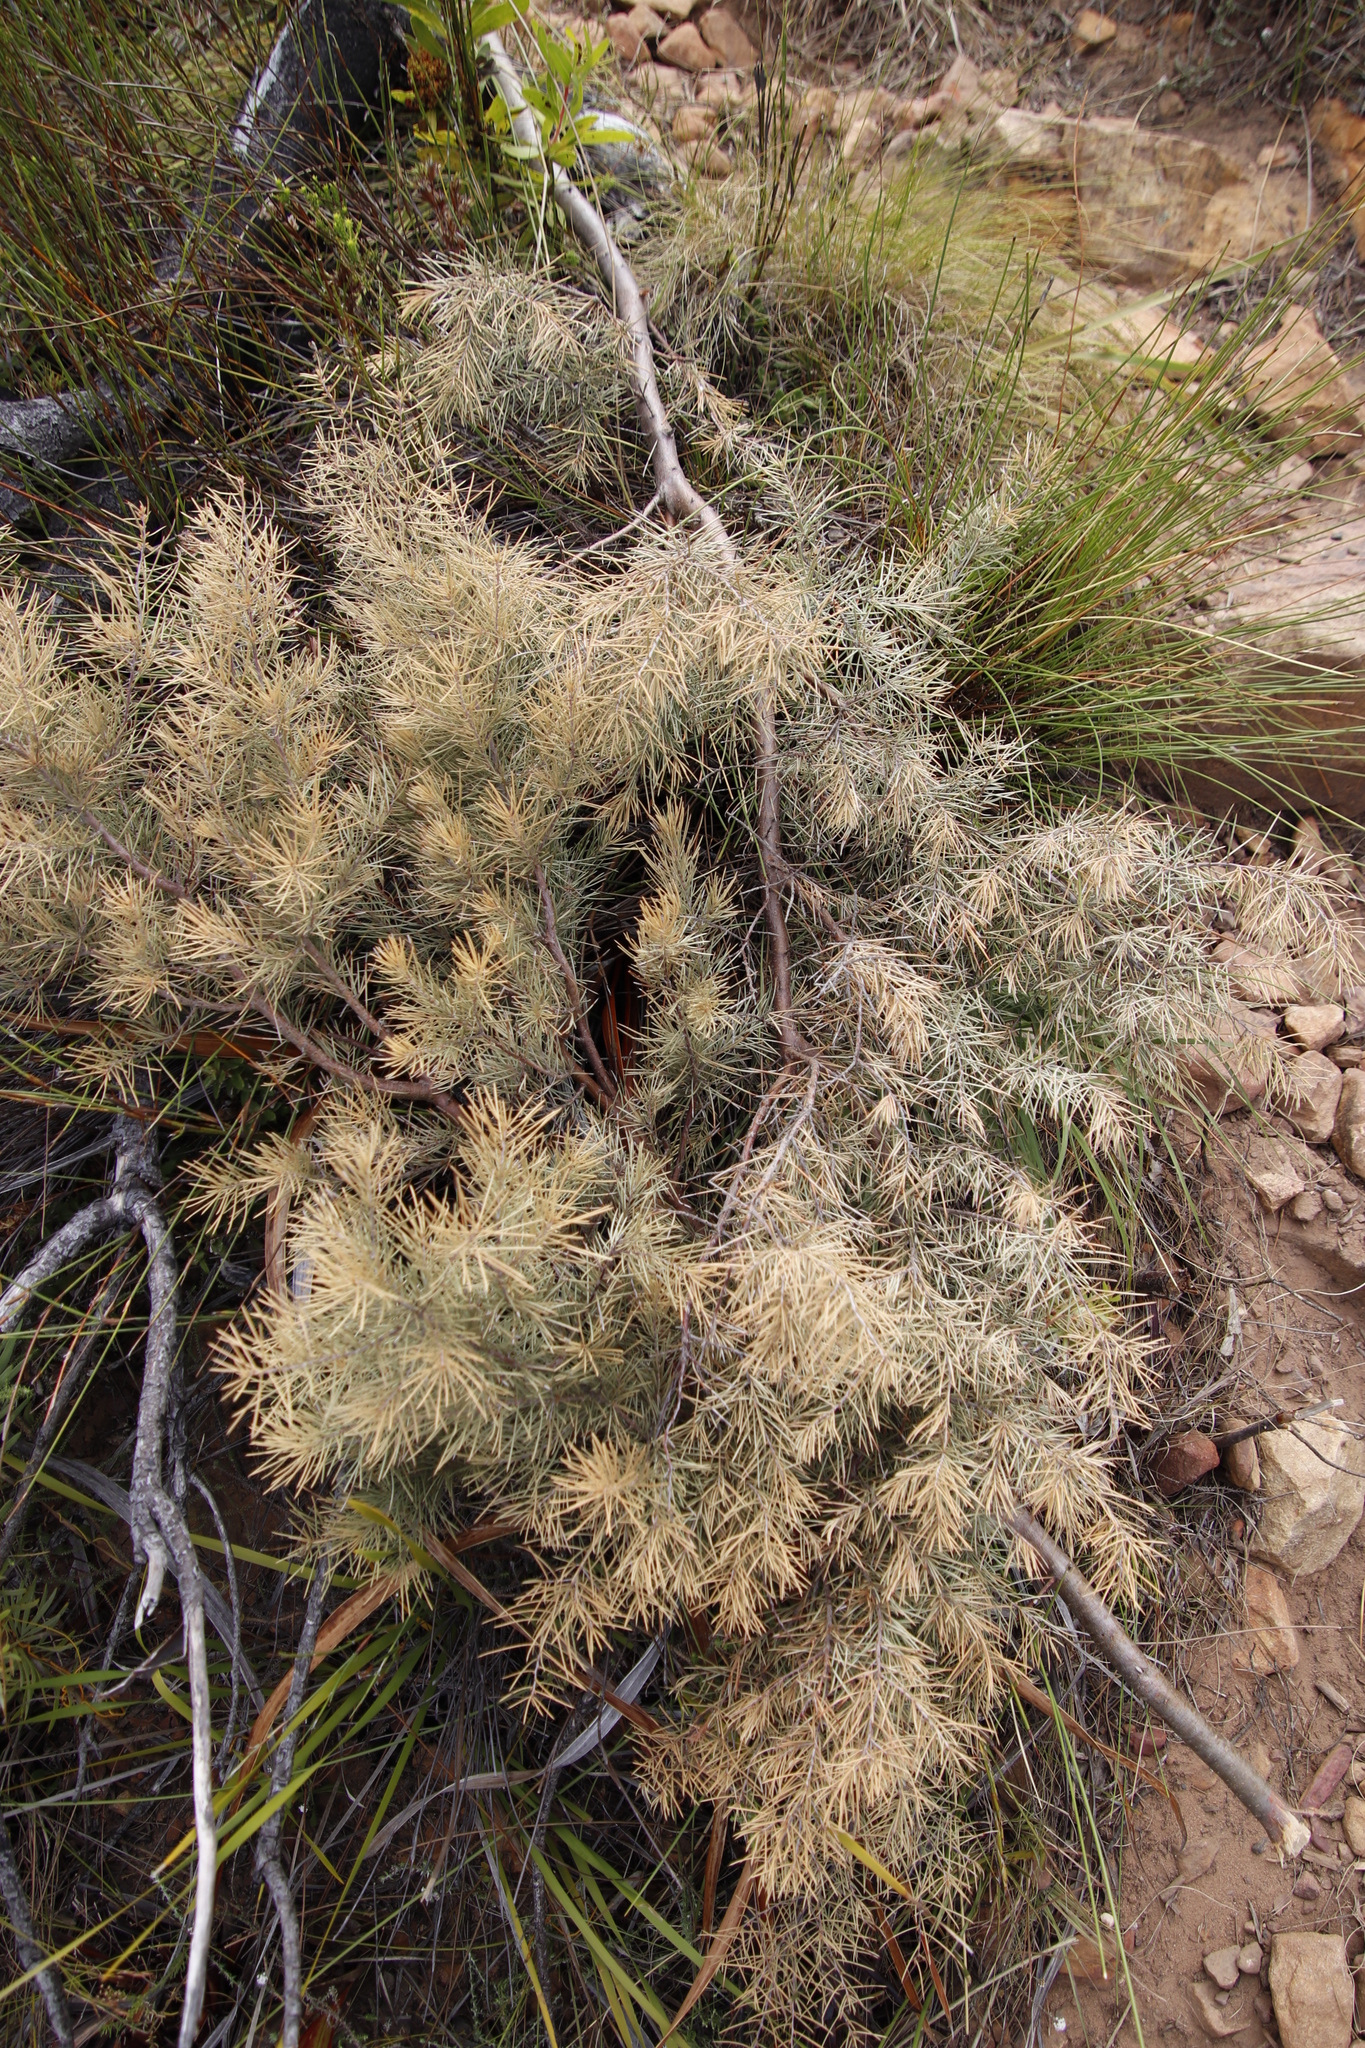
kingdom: Plantae
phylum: Tracheophyta
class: Magnoliopsida
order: Proteales
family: Proteaceae
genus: Hakea
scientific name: Hakea sericea
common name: Needle bush
